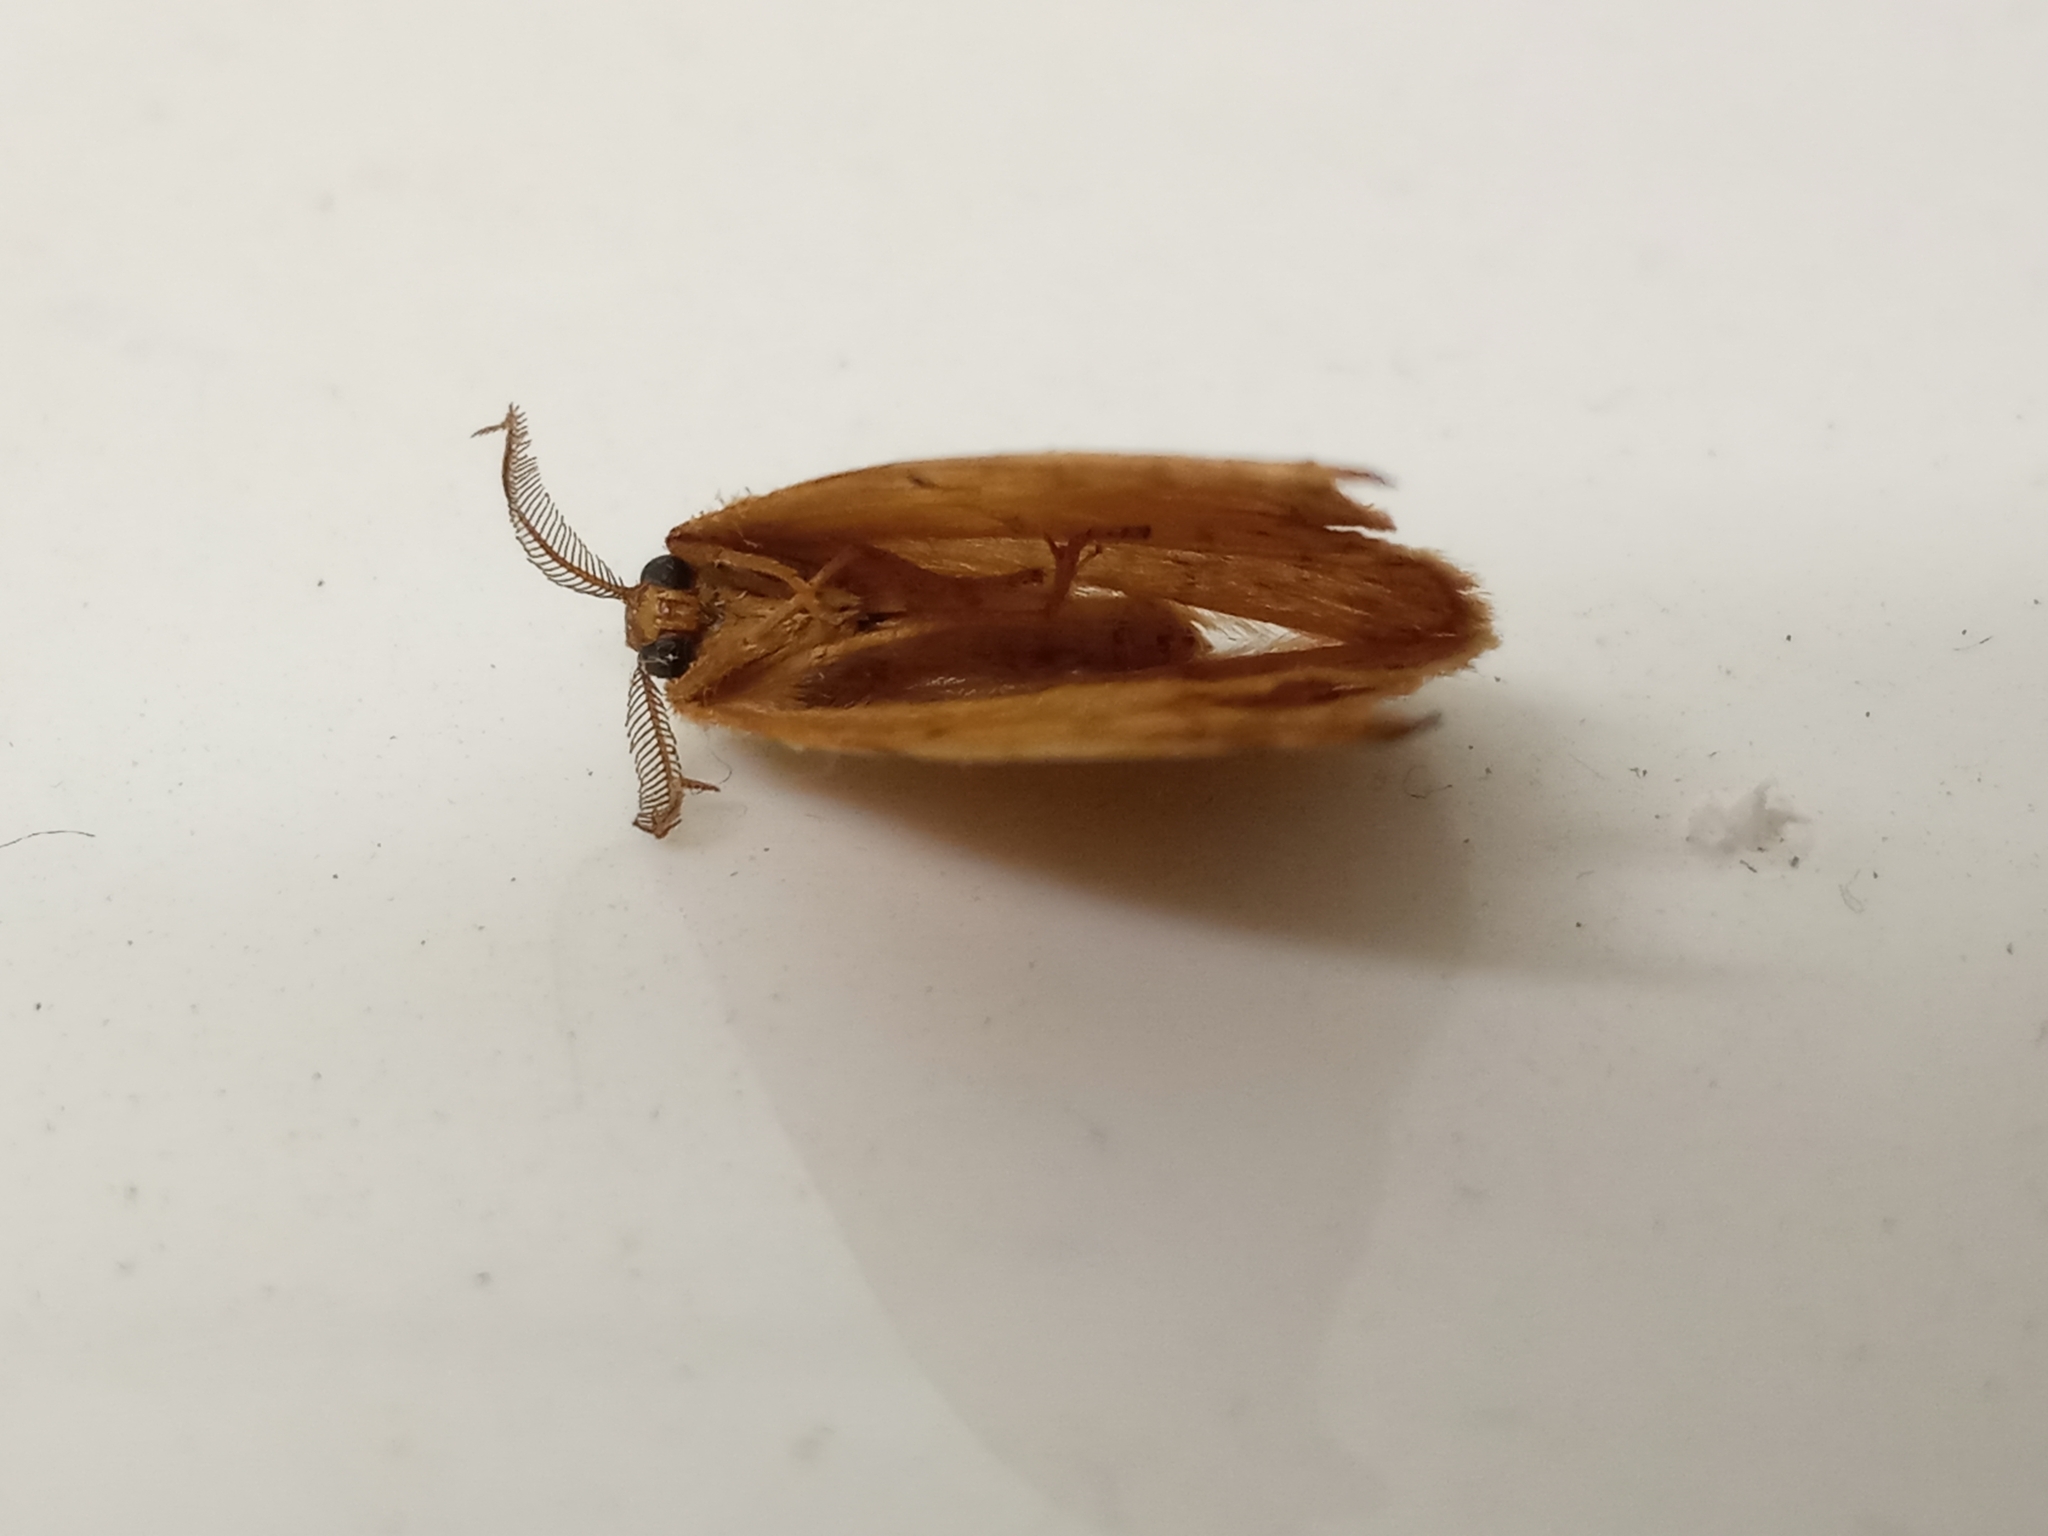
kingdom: Animalia
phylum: Arthropoda
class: Insecta
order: Lepidoptera
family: Drepanidae
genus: Drepana
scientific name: Drepana falcataria
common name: Pebble hook-tip
